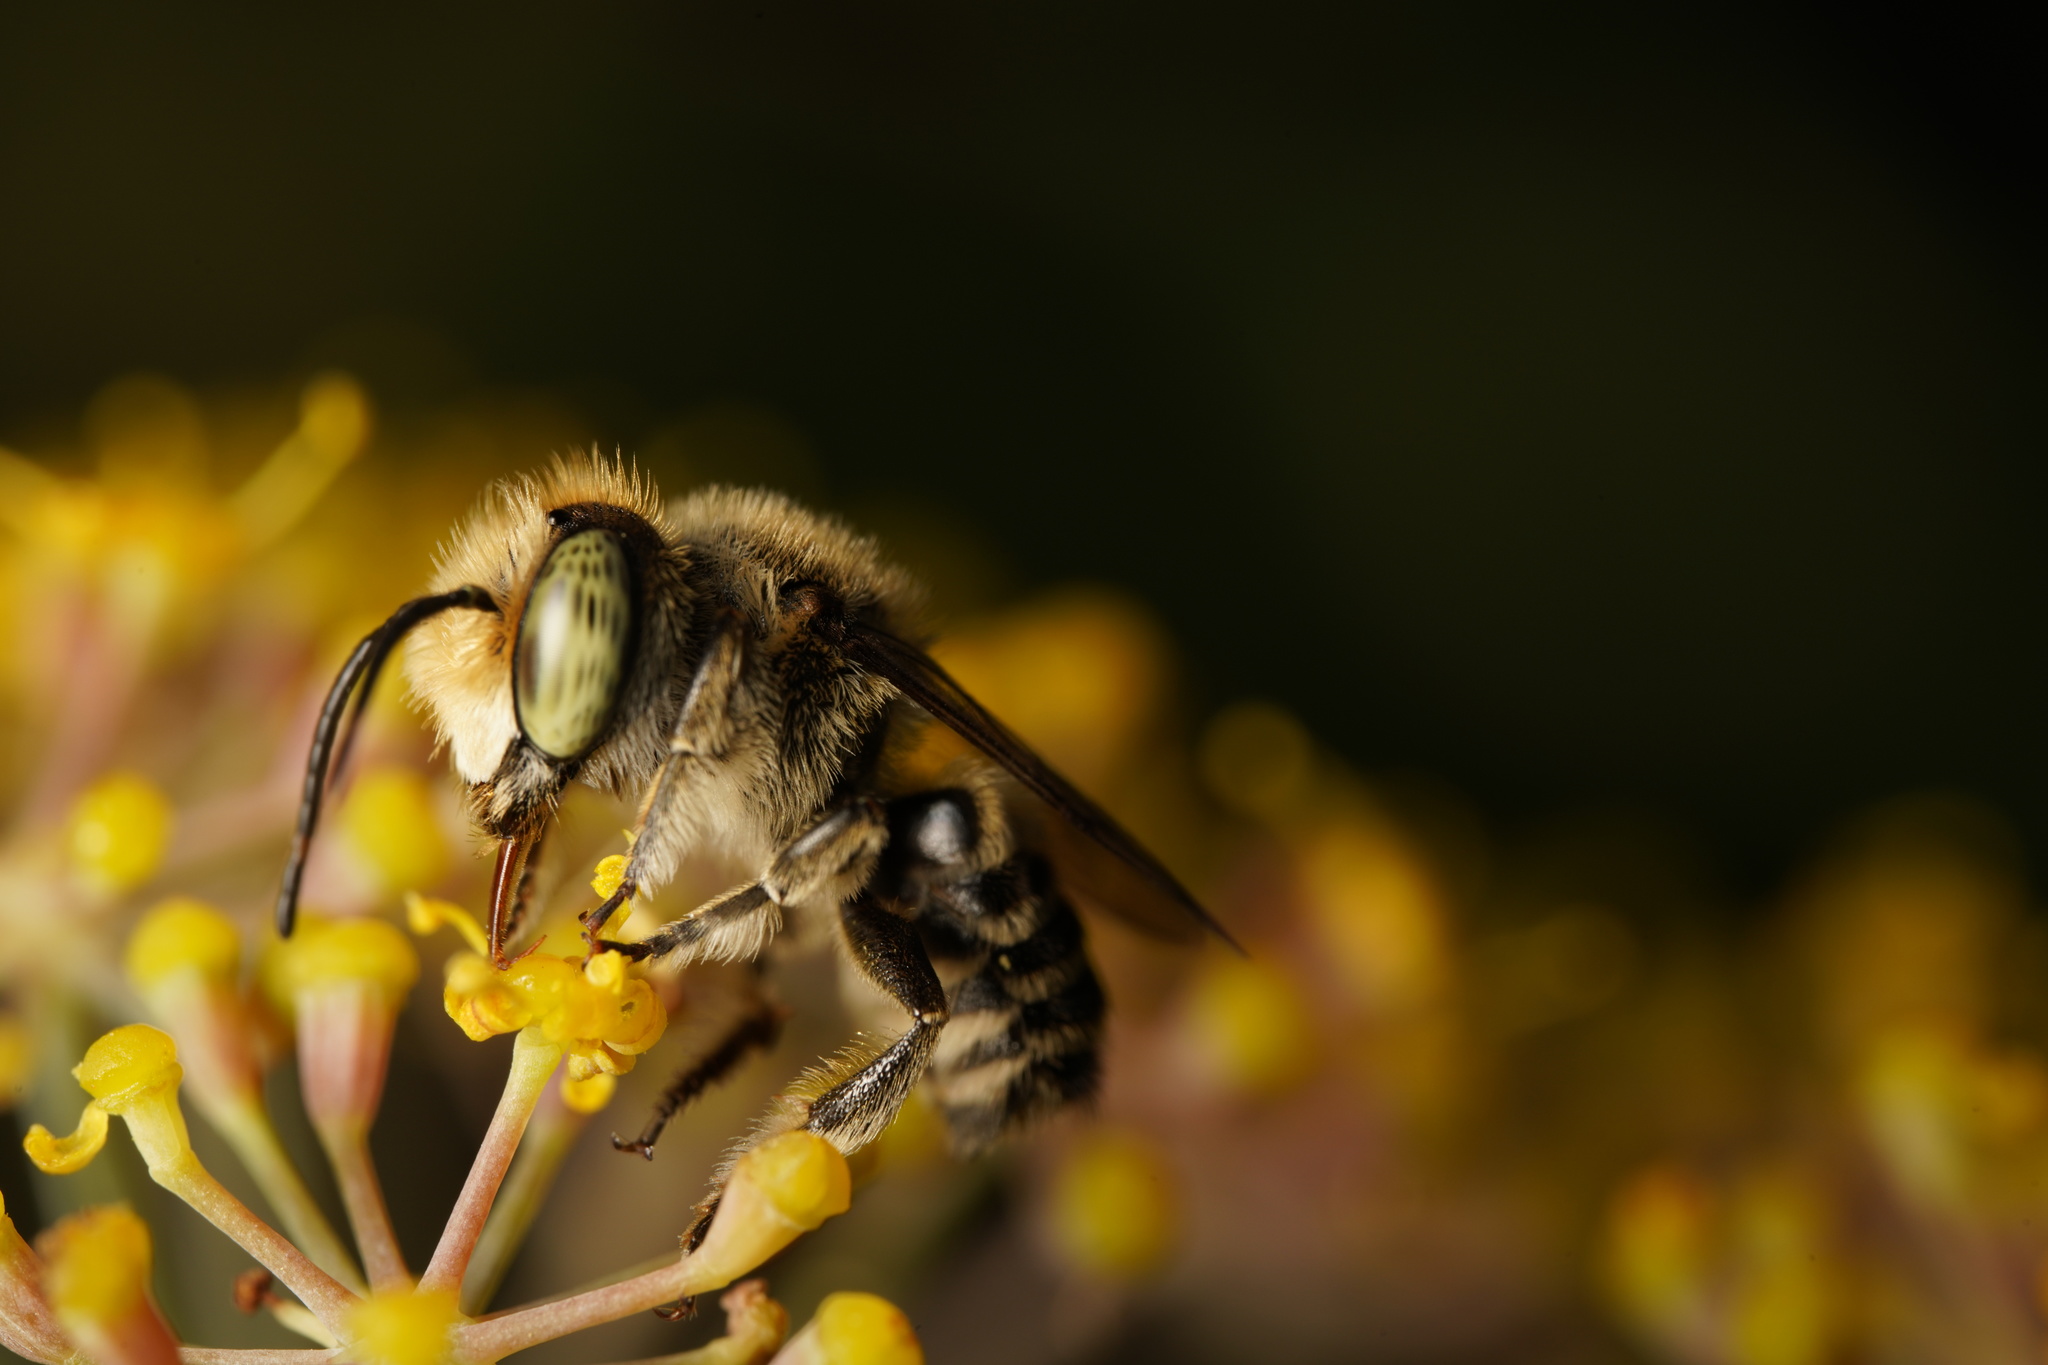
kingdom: Animalia
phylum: Arthropoda
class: Insecta
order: Hymenoptera
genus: Eutricharaea
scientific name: Eutricharaea
